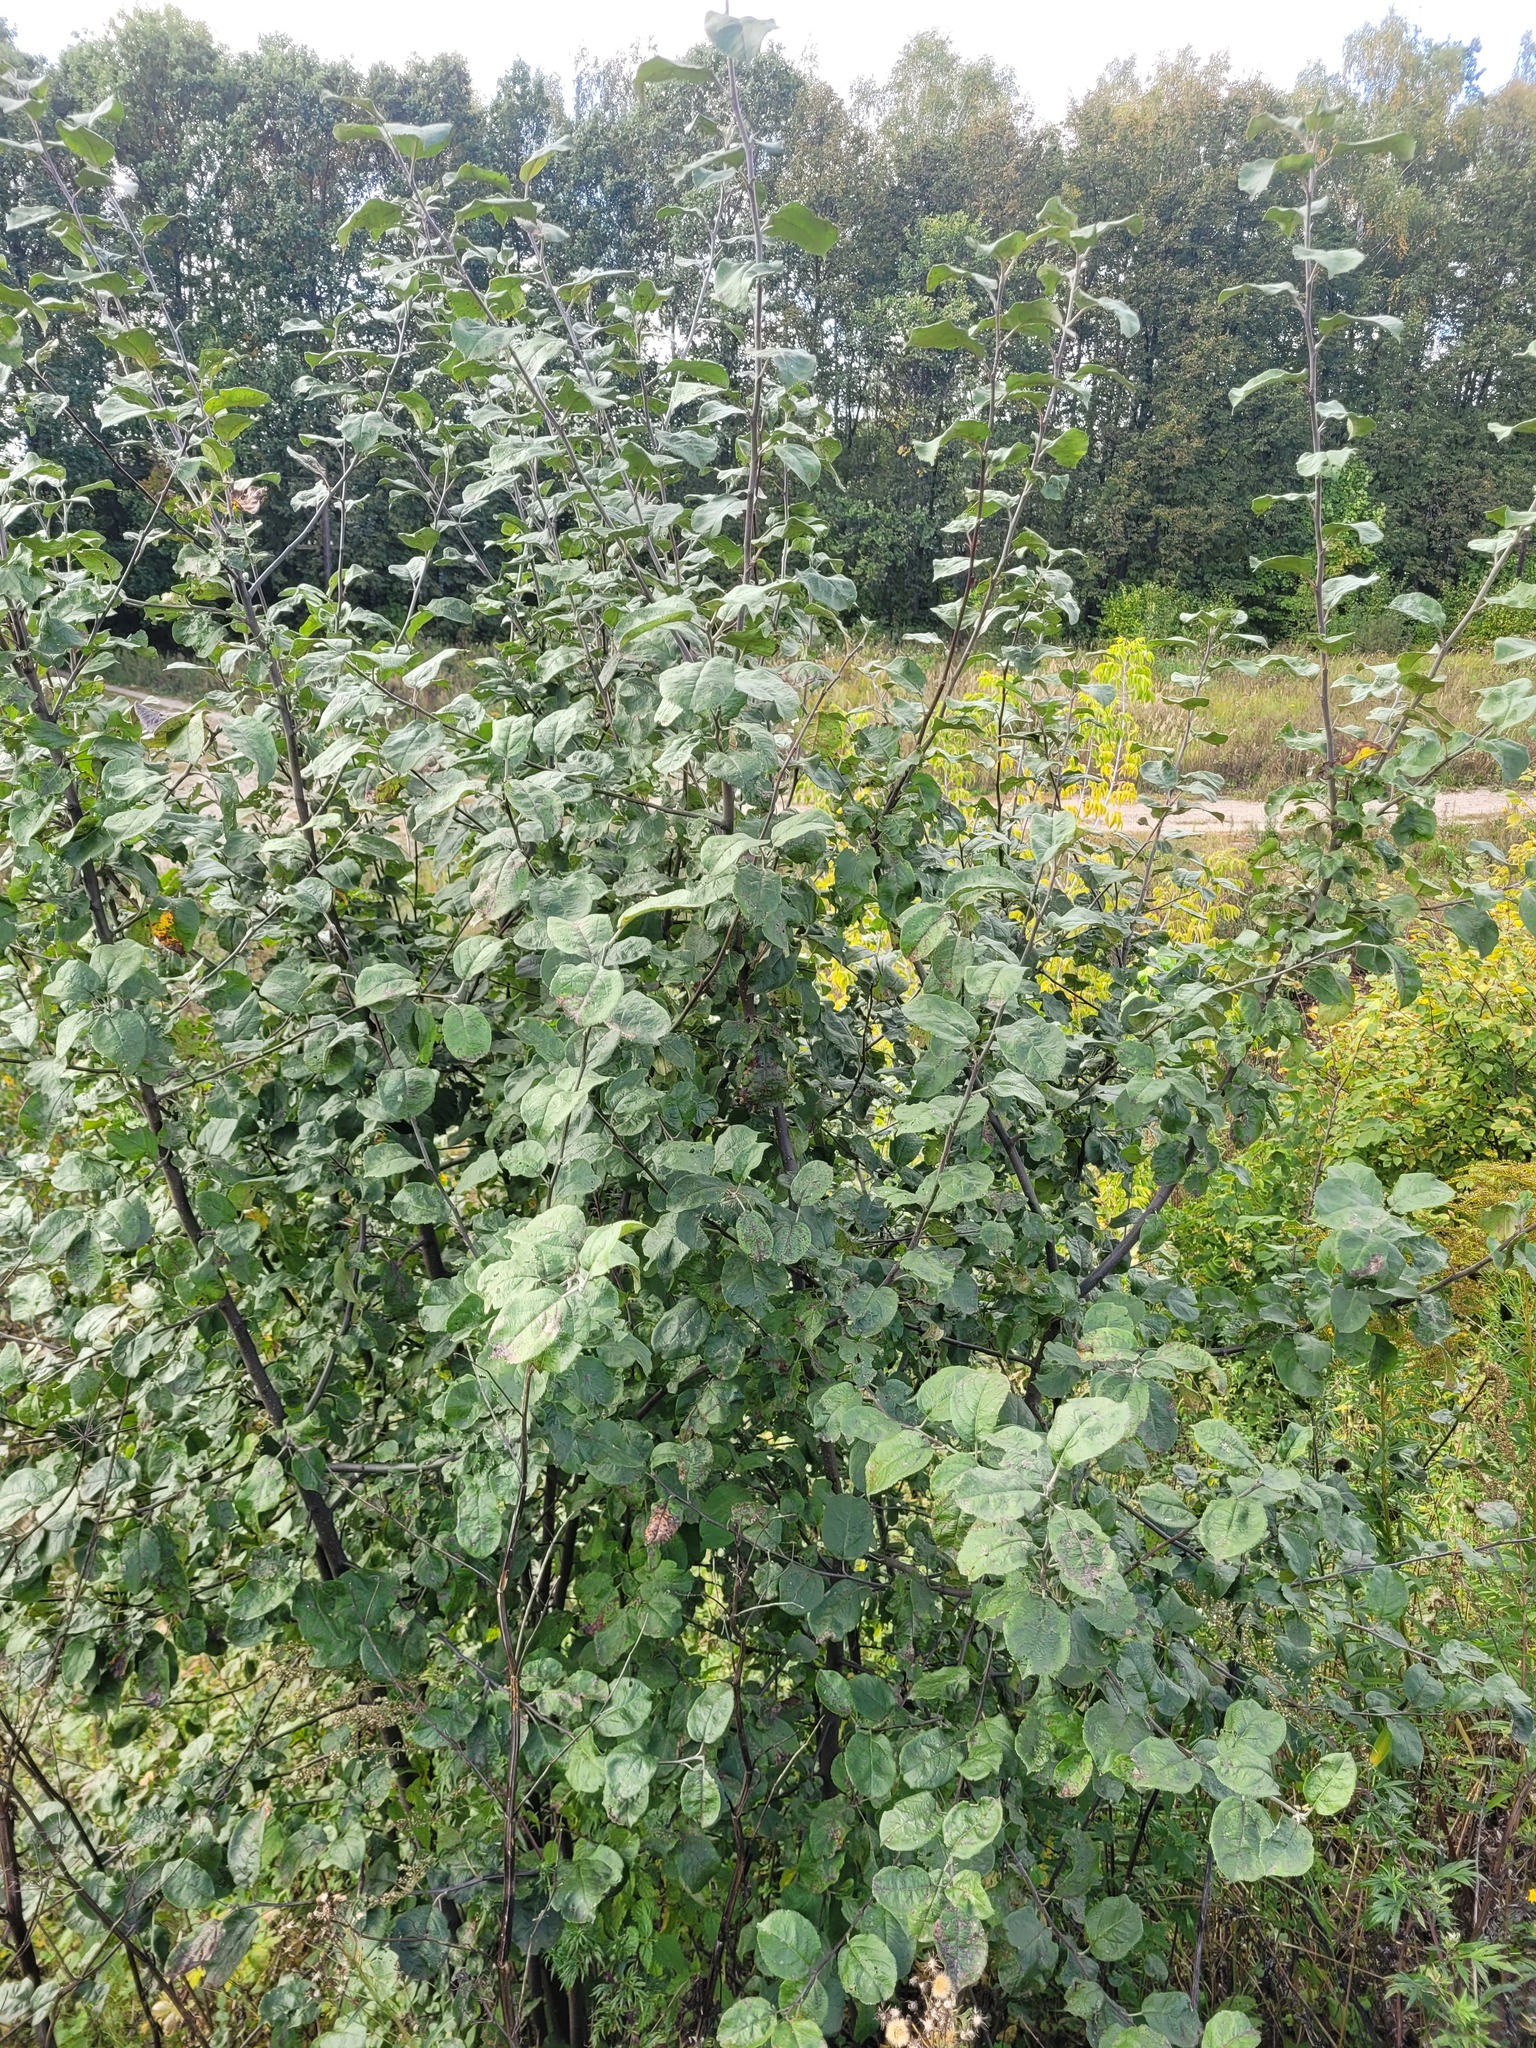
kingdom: Plantae
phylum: Tracheophyta
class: Magnoliopsida
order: Rosales
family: Rosaceae
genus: Malus
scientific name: Malus domestica
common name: Apple
